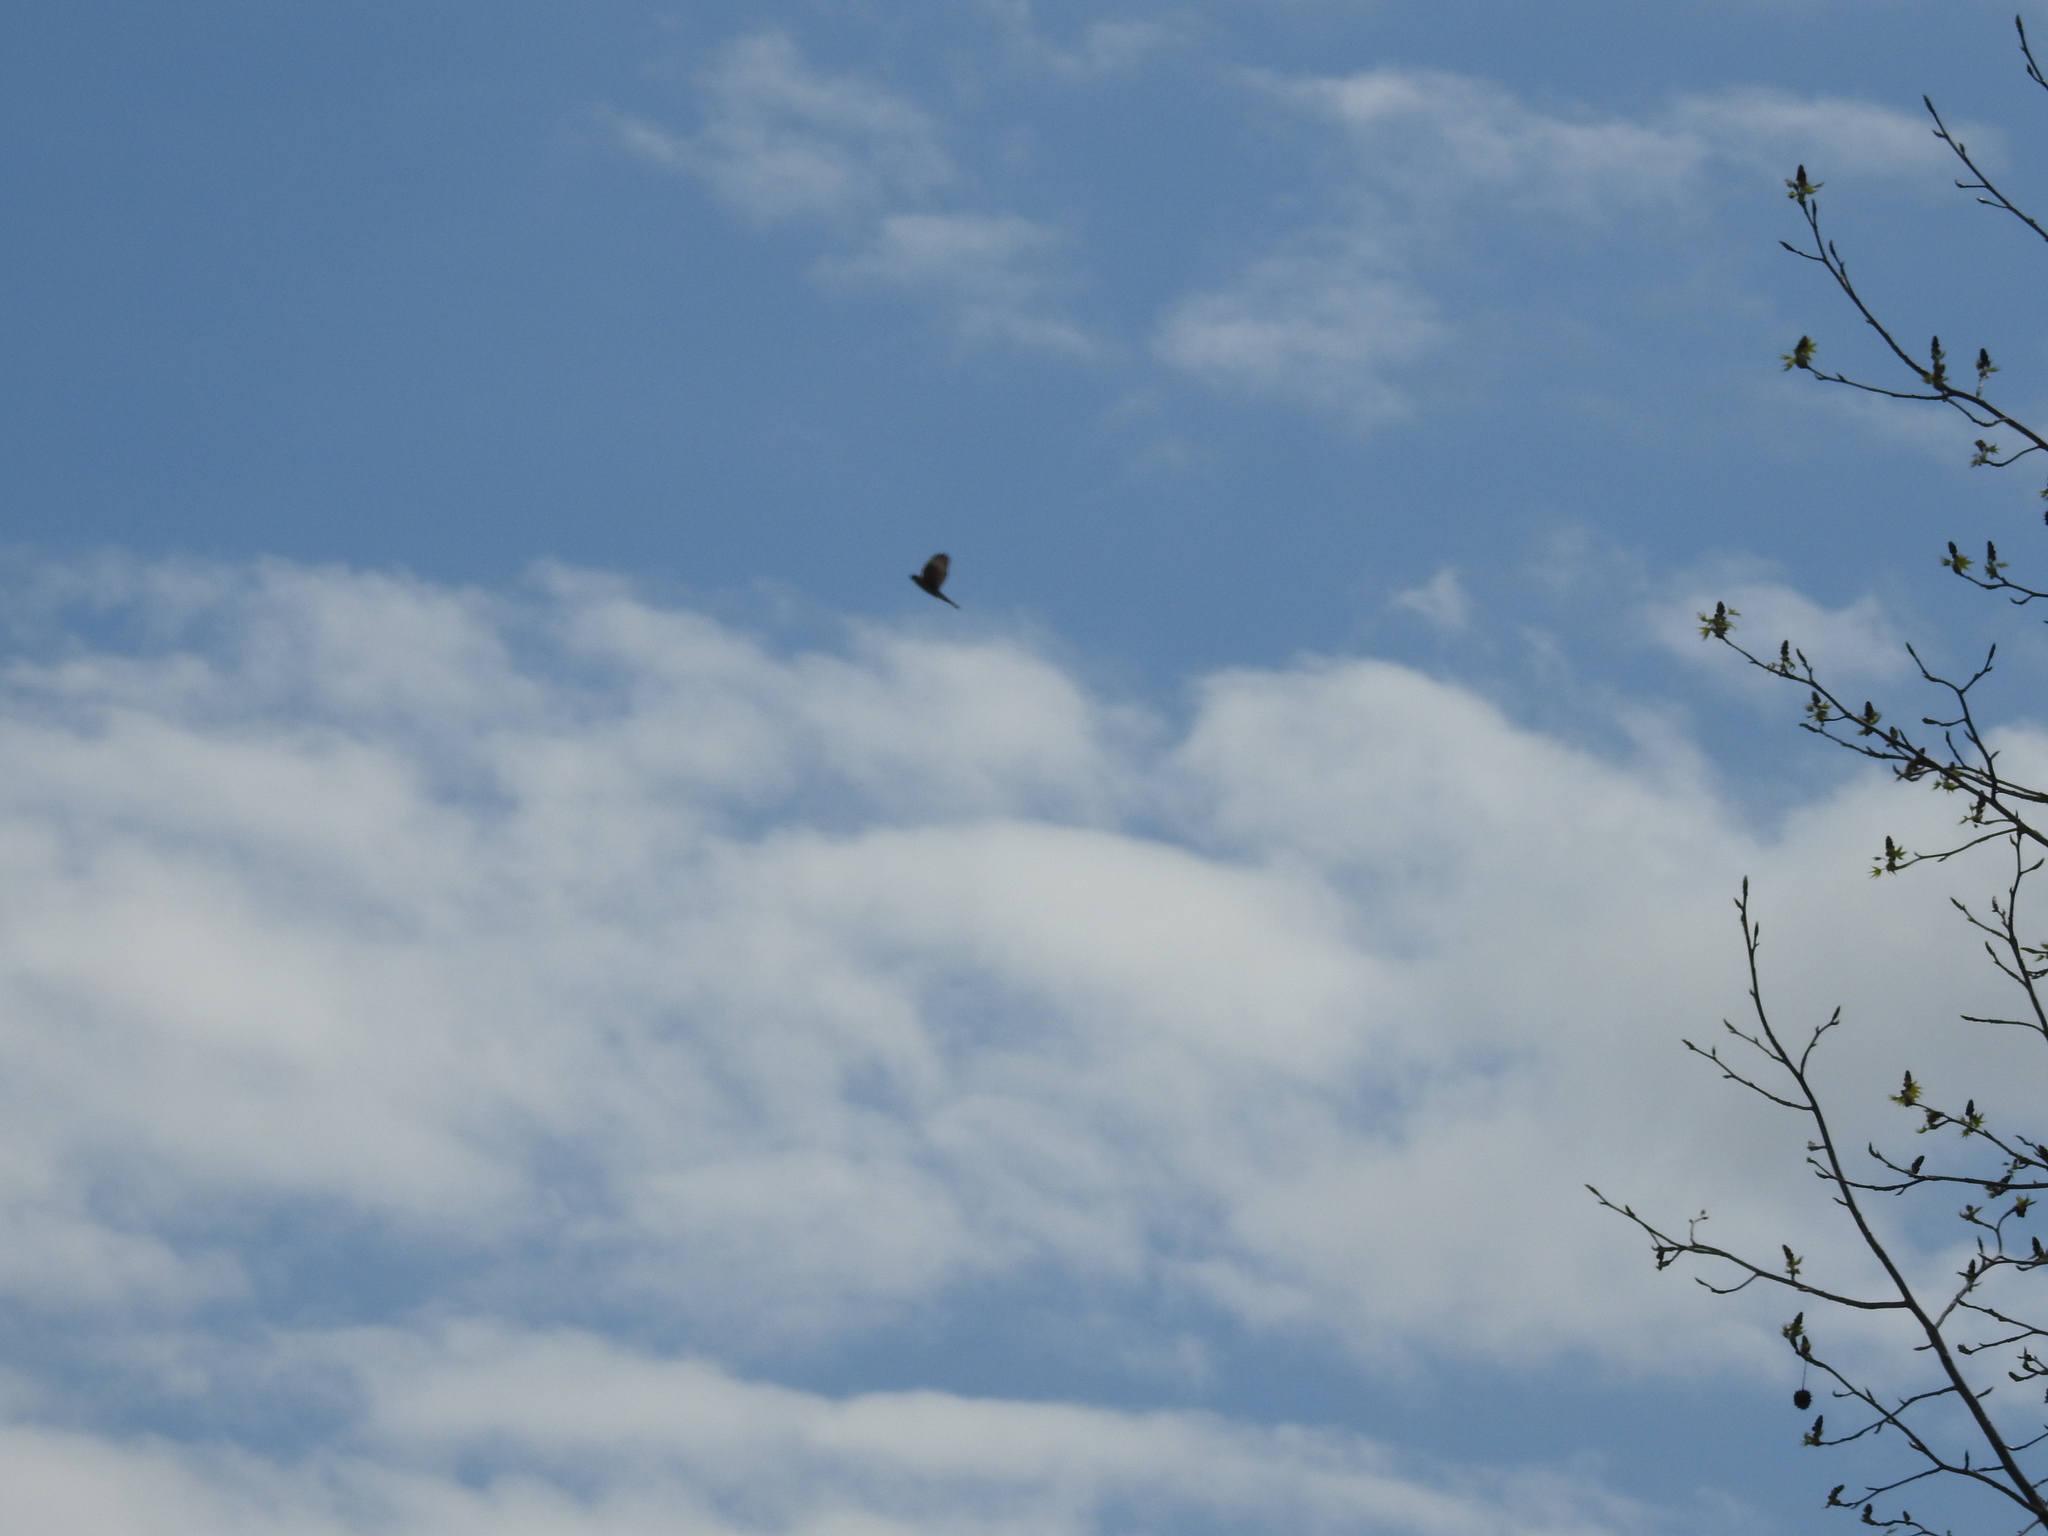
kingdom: Animalia
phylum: Chordata
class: Aves
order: Accipitriformes
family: Accipitridae
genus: Accipiter
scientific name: Accipiter cooperii
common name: Cooper's hawk
